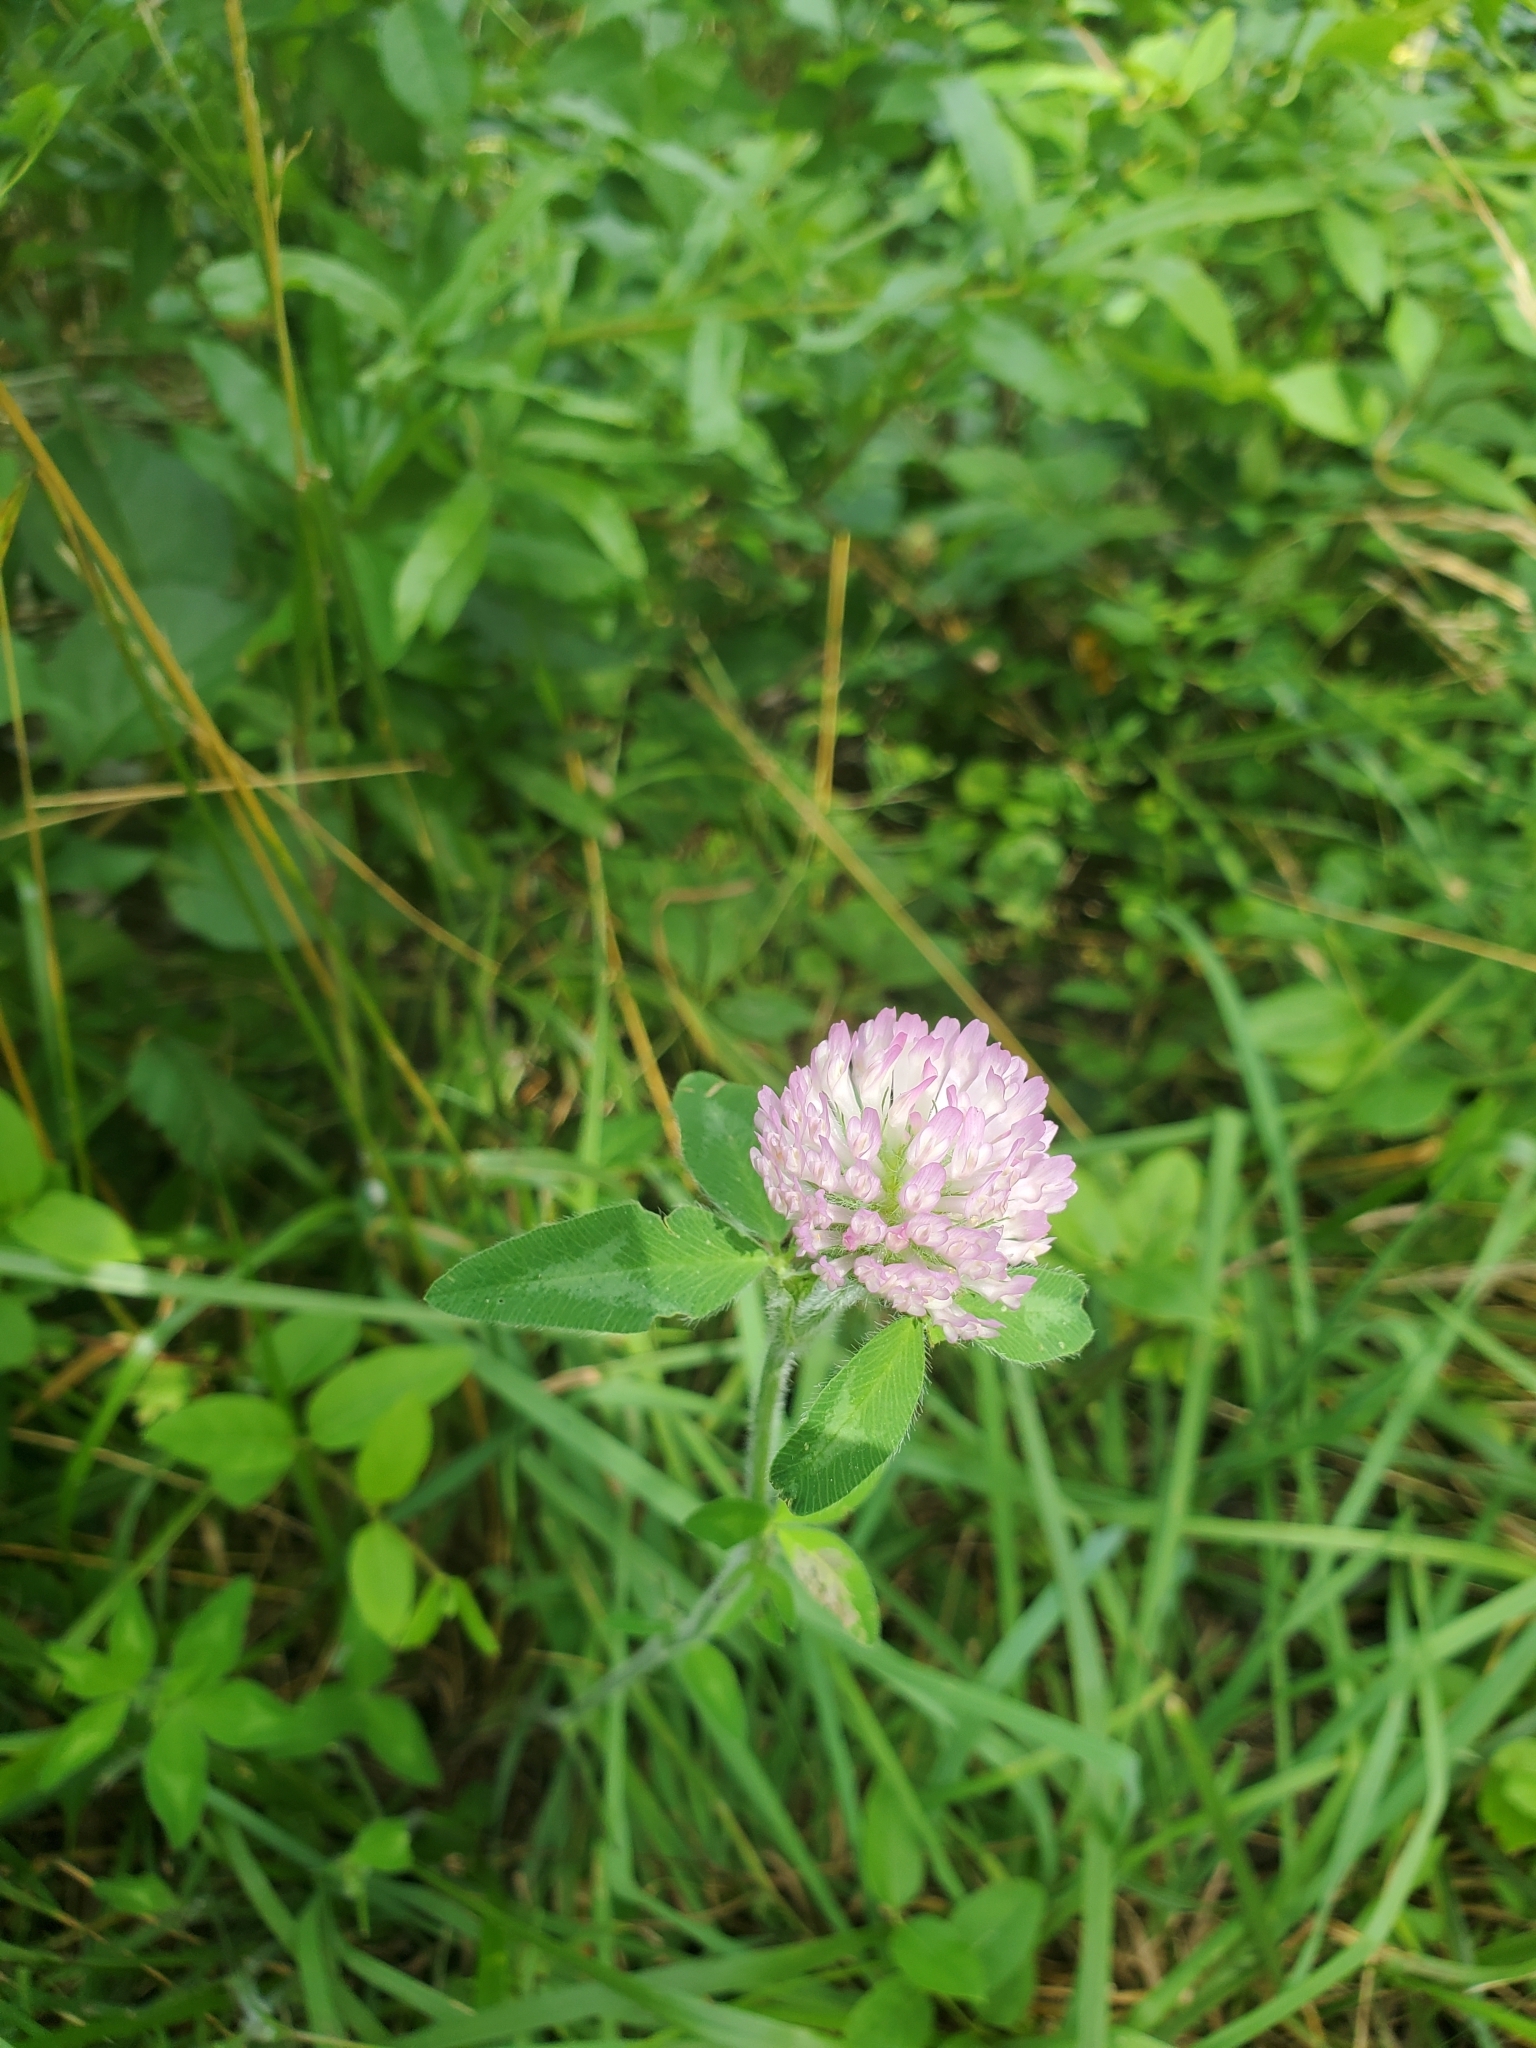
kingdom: Plantae
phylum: Tracheophyta
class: Magnoliopsida
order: Fabales
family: Fabaceae
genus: Trifolium
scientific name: Trifolium pratense
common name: Red clover
